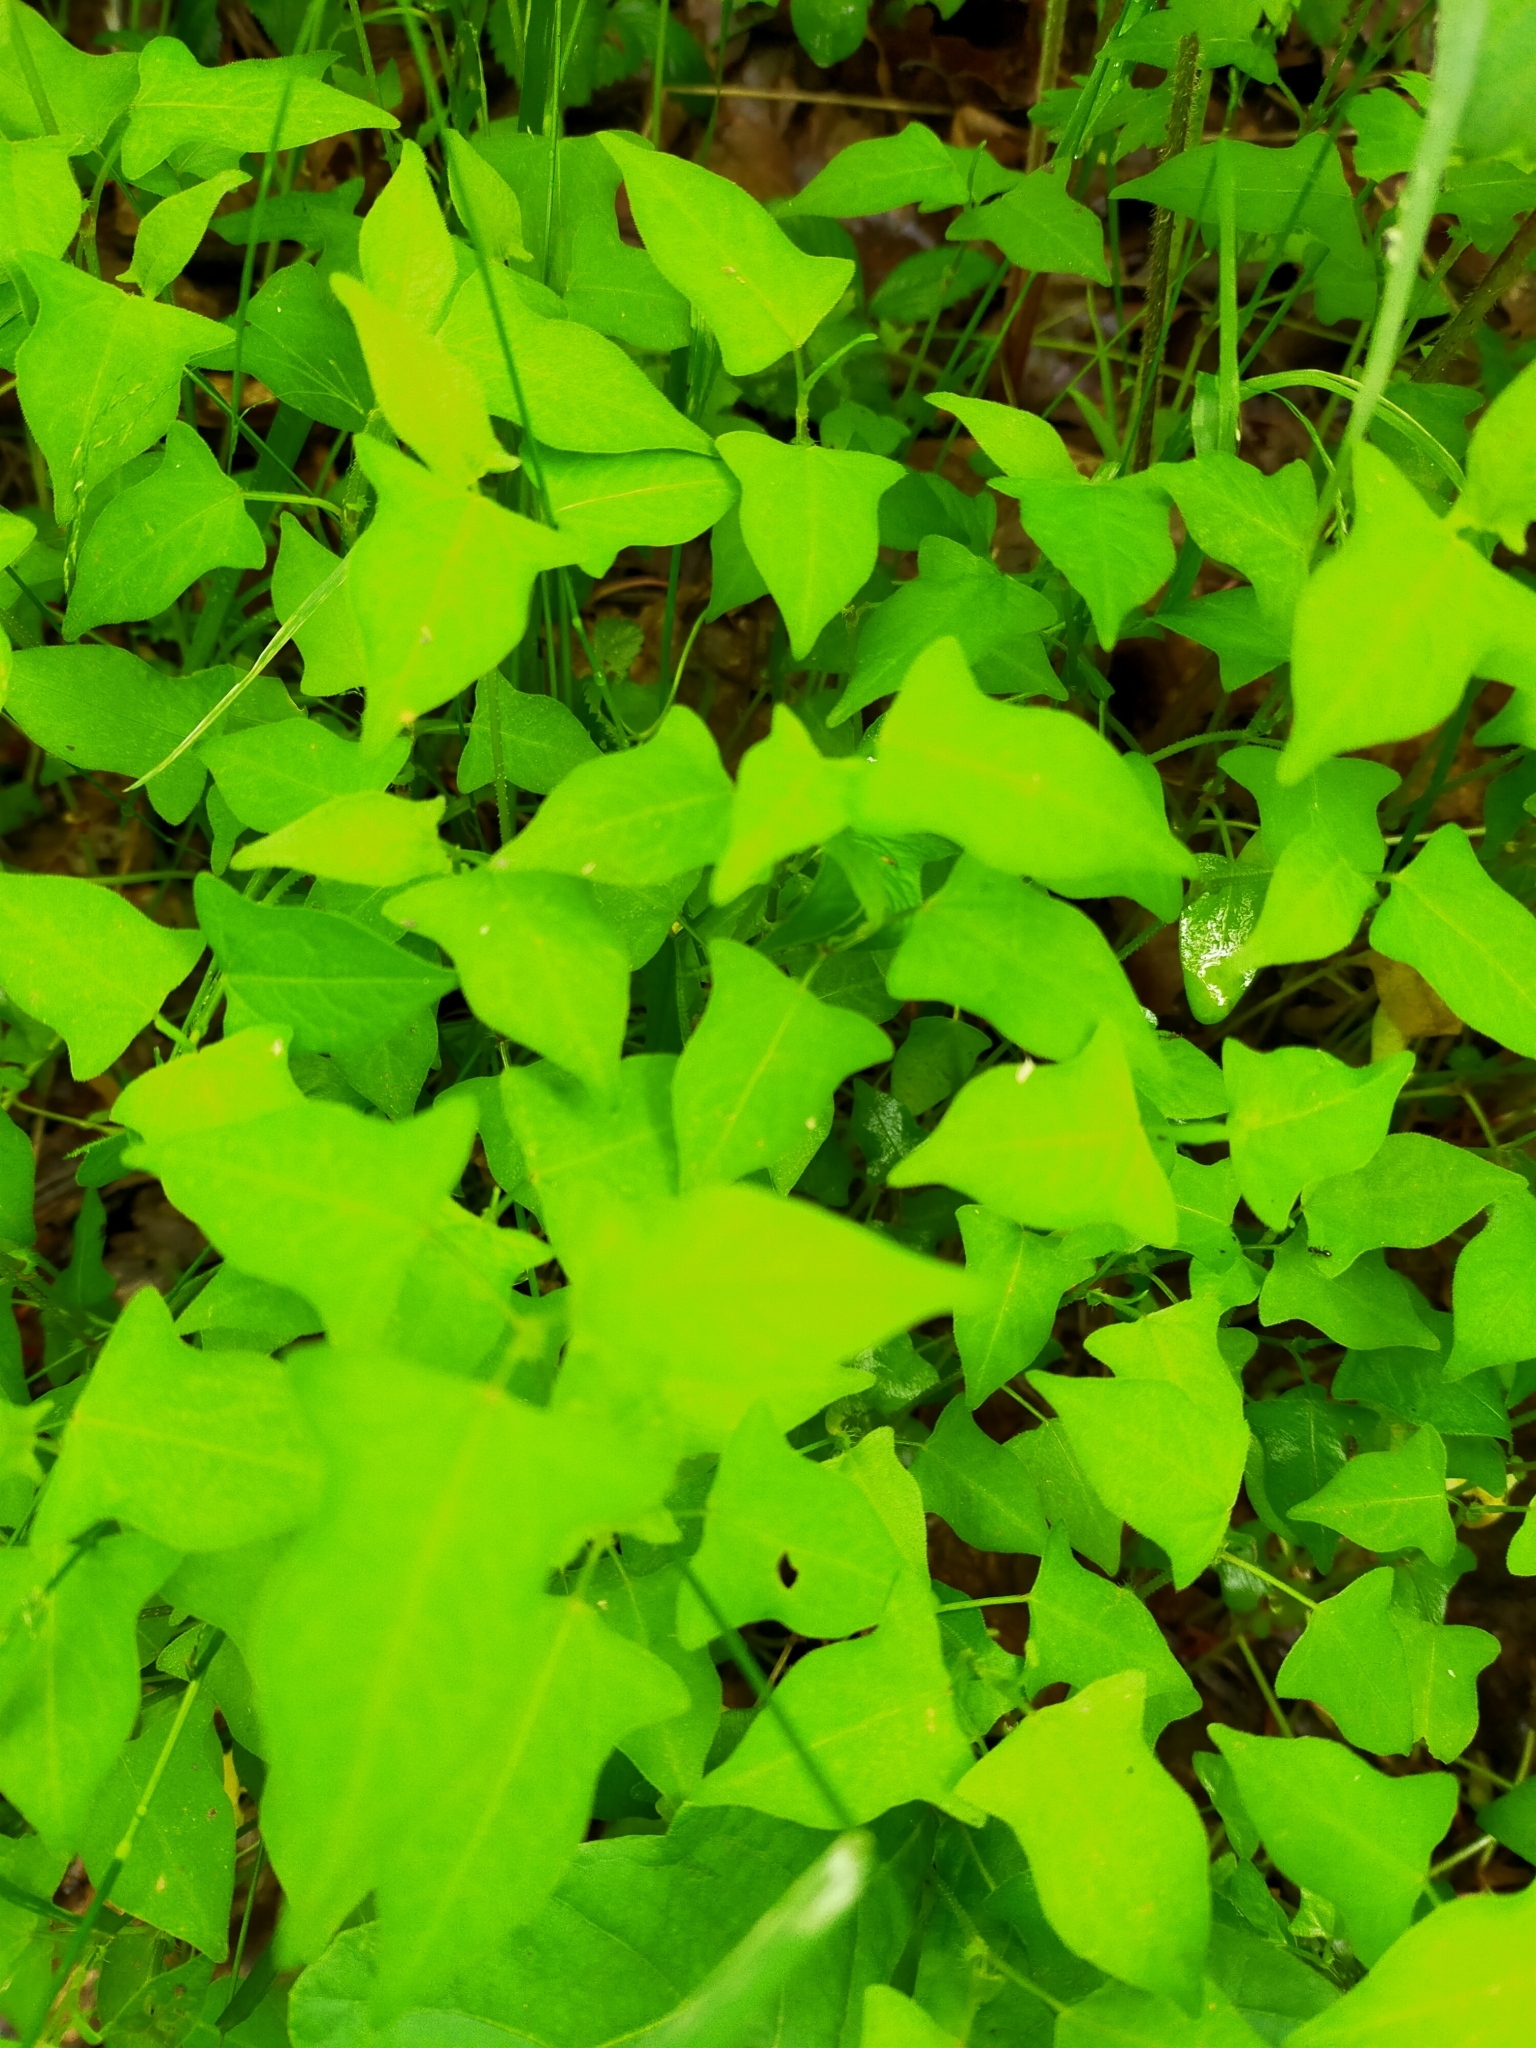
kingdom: Plantae
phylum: Tracheophyta
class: Magnoliopsida
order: Caryophyllales
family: Polygonaceae
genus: Persicaria
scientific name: Persicaria thunbergii
